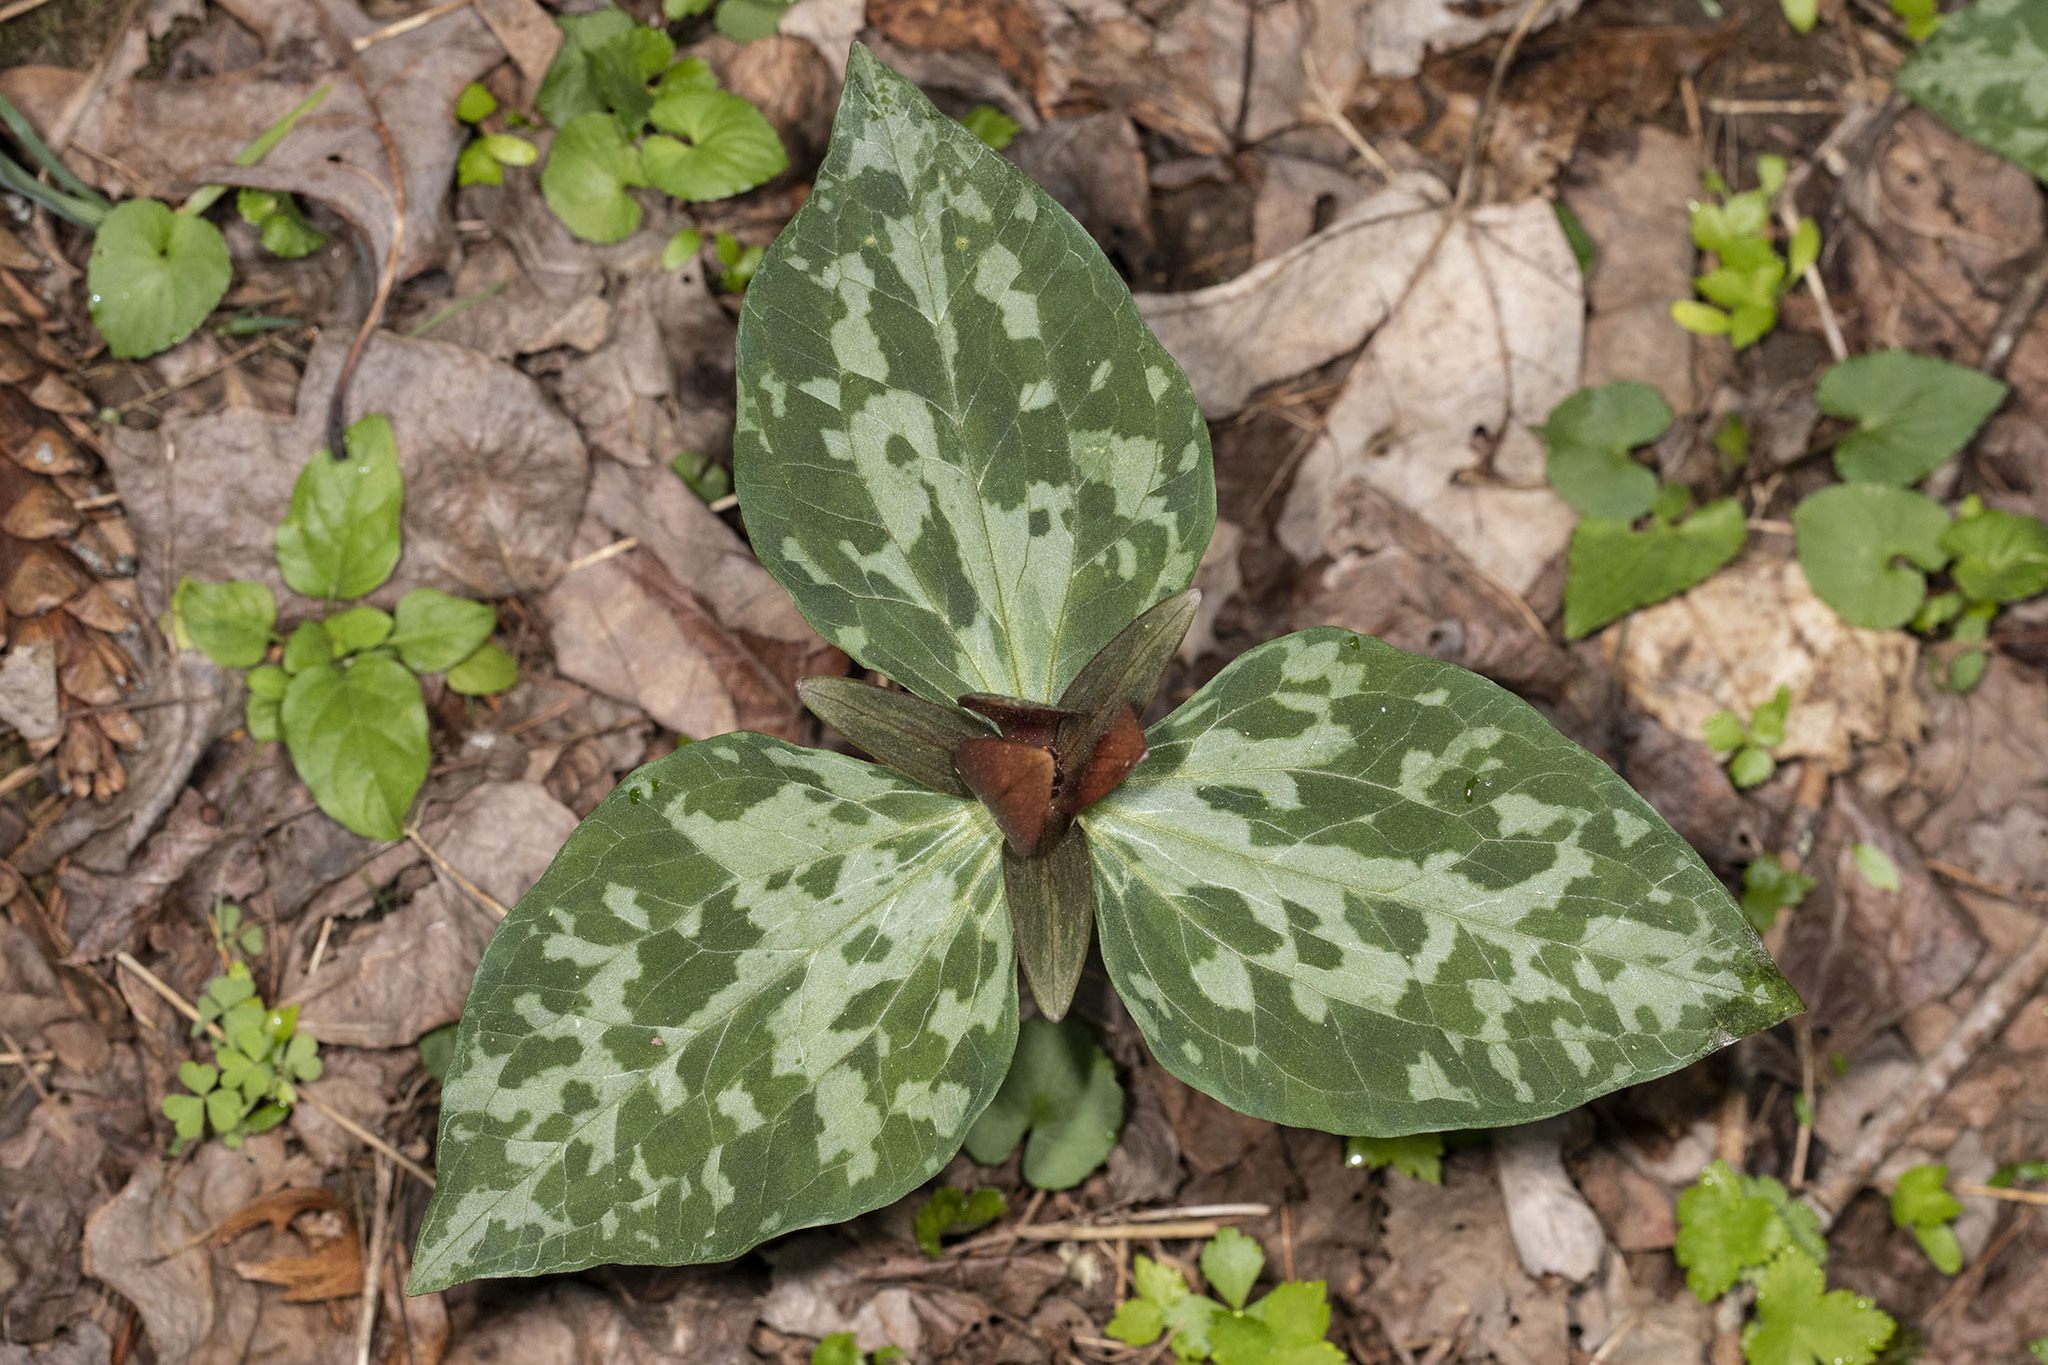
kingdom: Plantae
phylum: Tracheophyta
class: Liliopsida
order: Liliales
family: Melanthiaceae
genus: Trillium
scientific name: Trillium cuneatum
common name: Cuneate trillium
